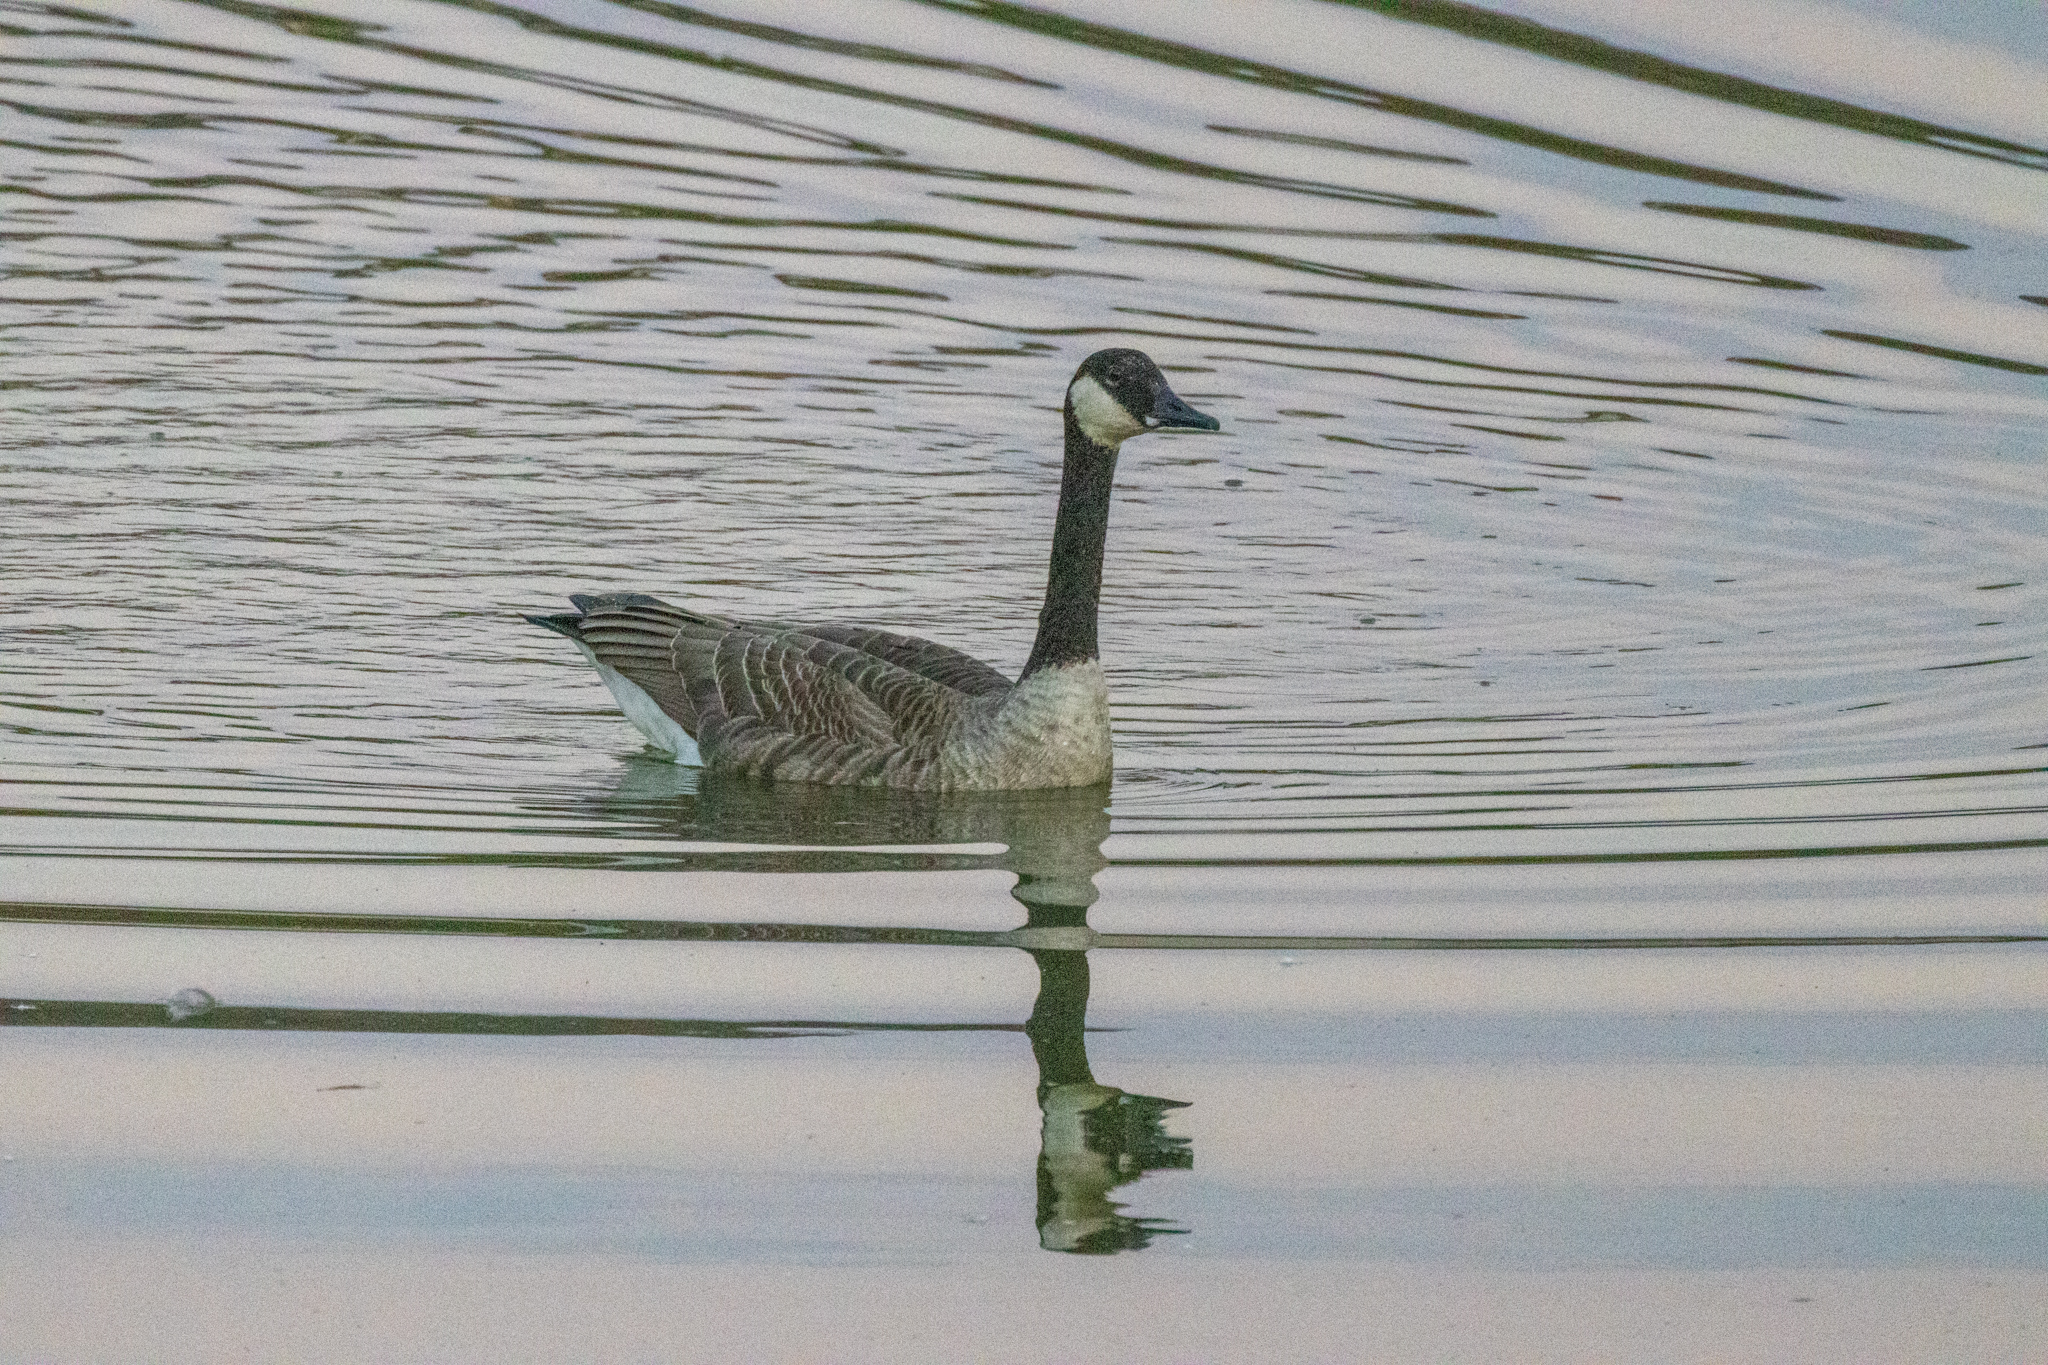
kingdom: Animalia
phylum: Chordata
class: Aves
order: Anseriformes
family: Anatidae
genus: Branta
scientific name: Branta canadensis
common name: Canada goose
